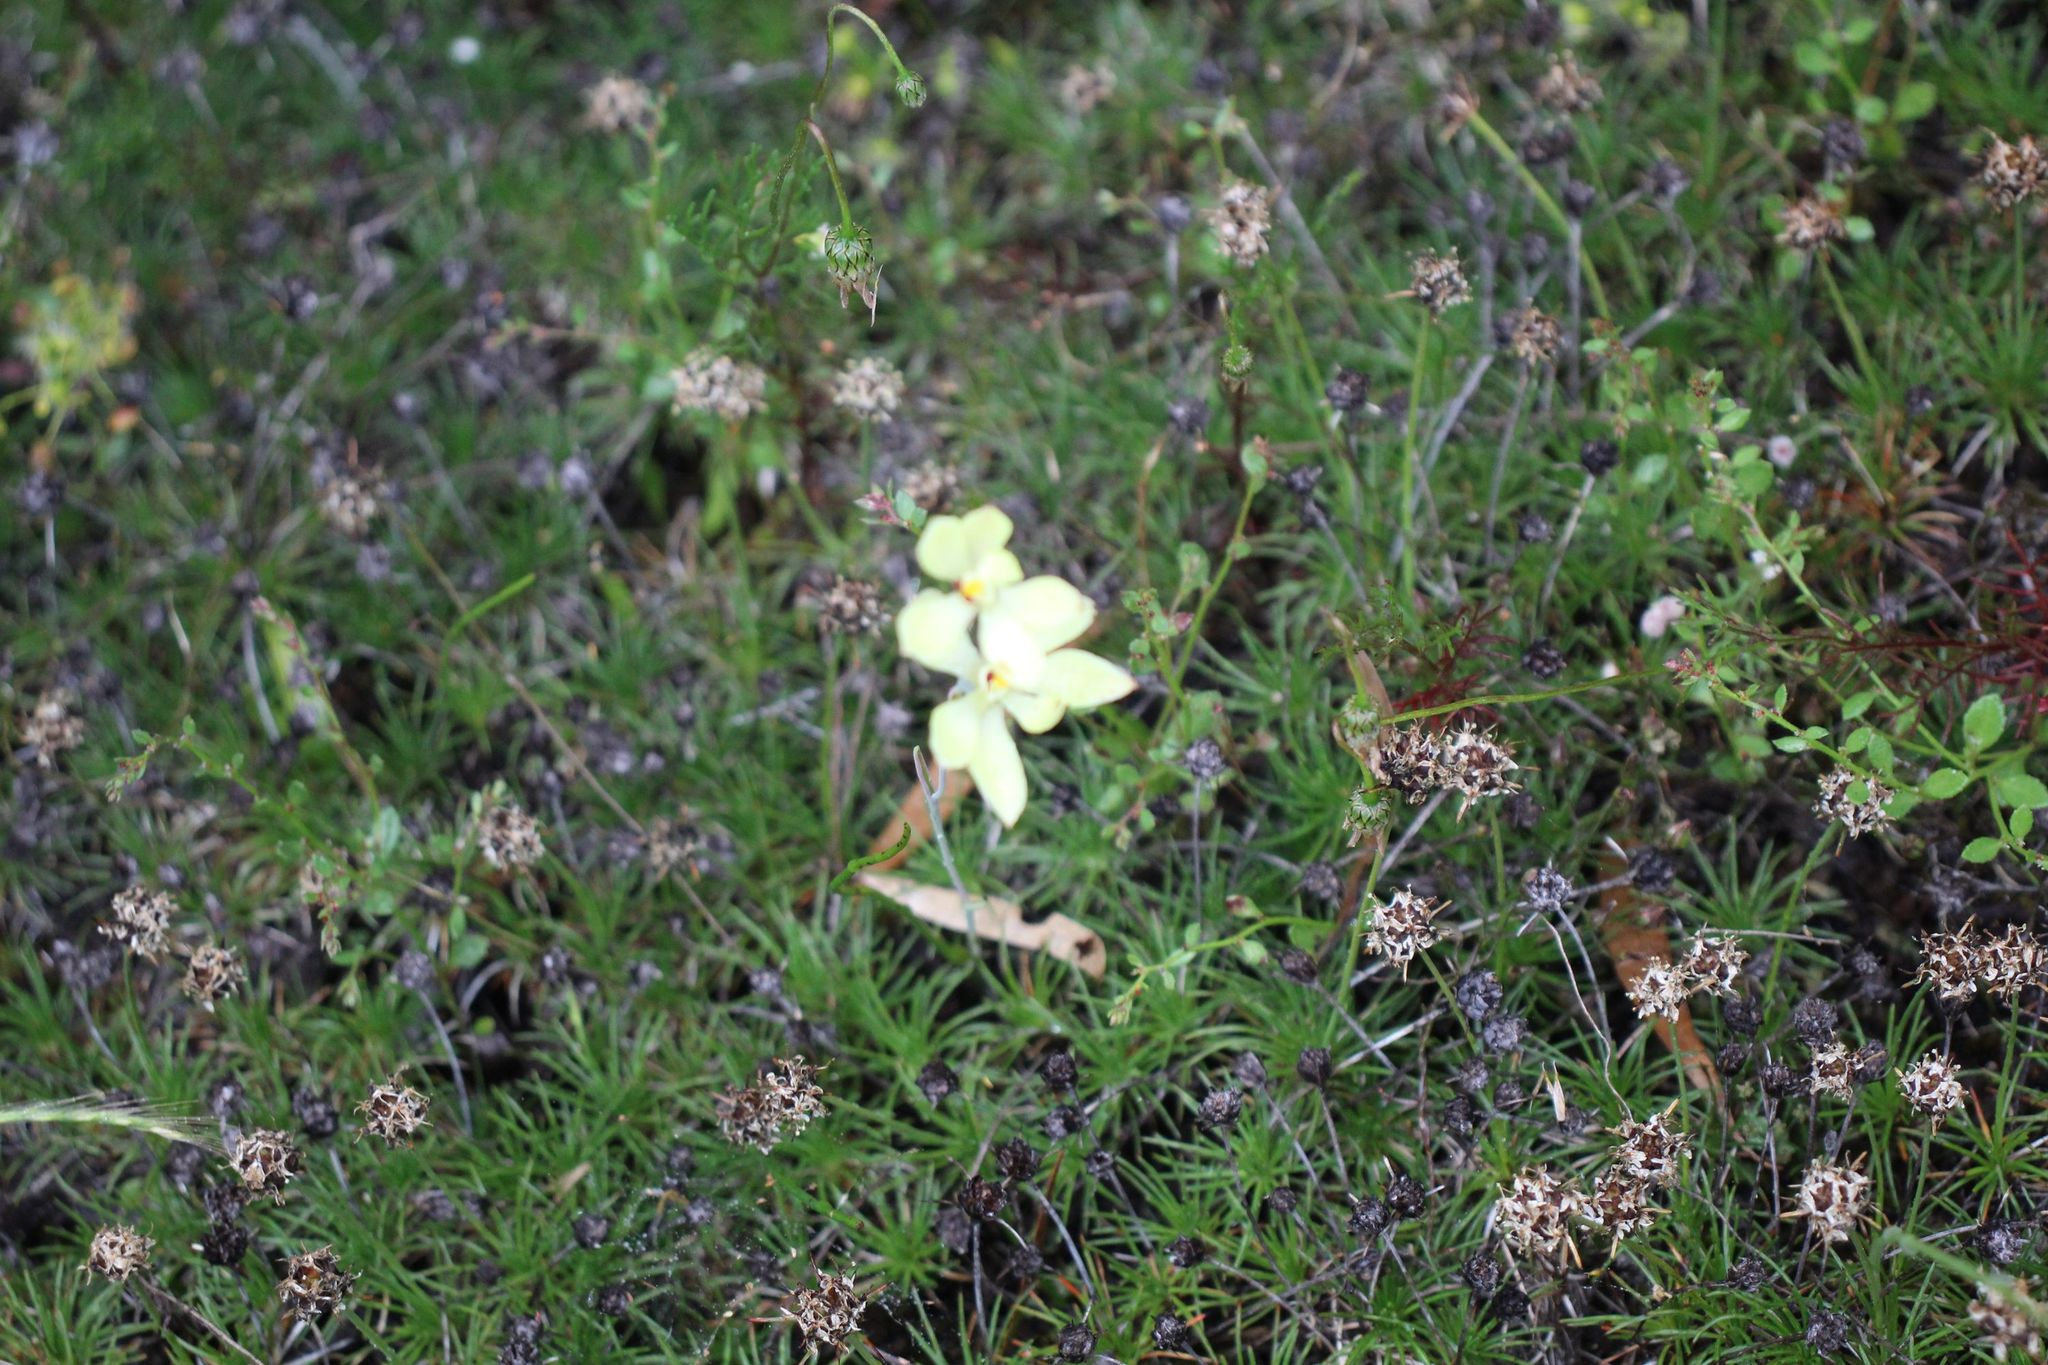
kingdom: Plantae
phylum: Tracheophyta
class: Liliopsida
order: Asparagales
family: Orchidaceae
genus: Thelymitra
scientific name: Thelymitra antennifera
